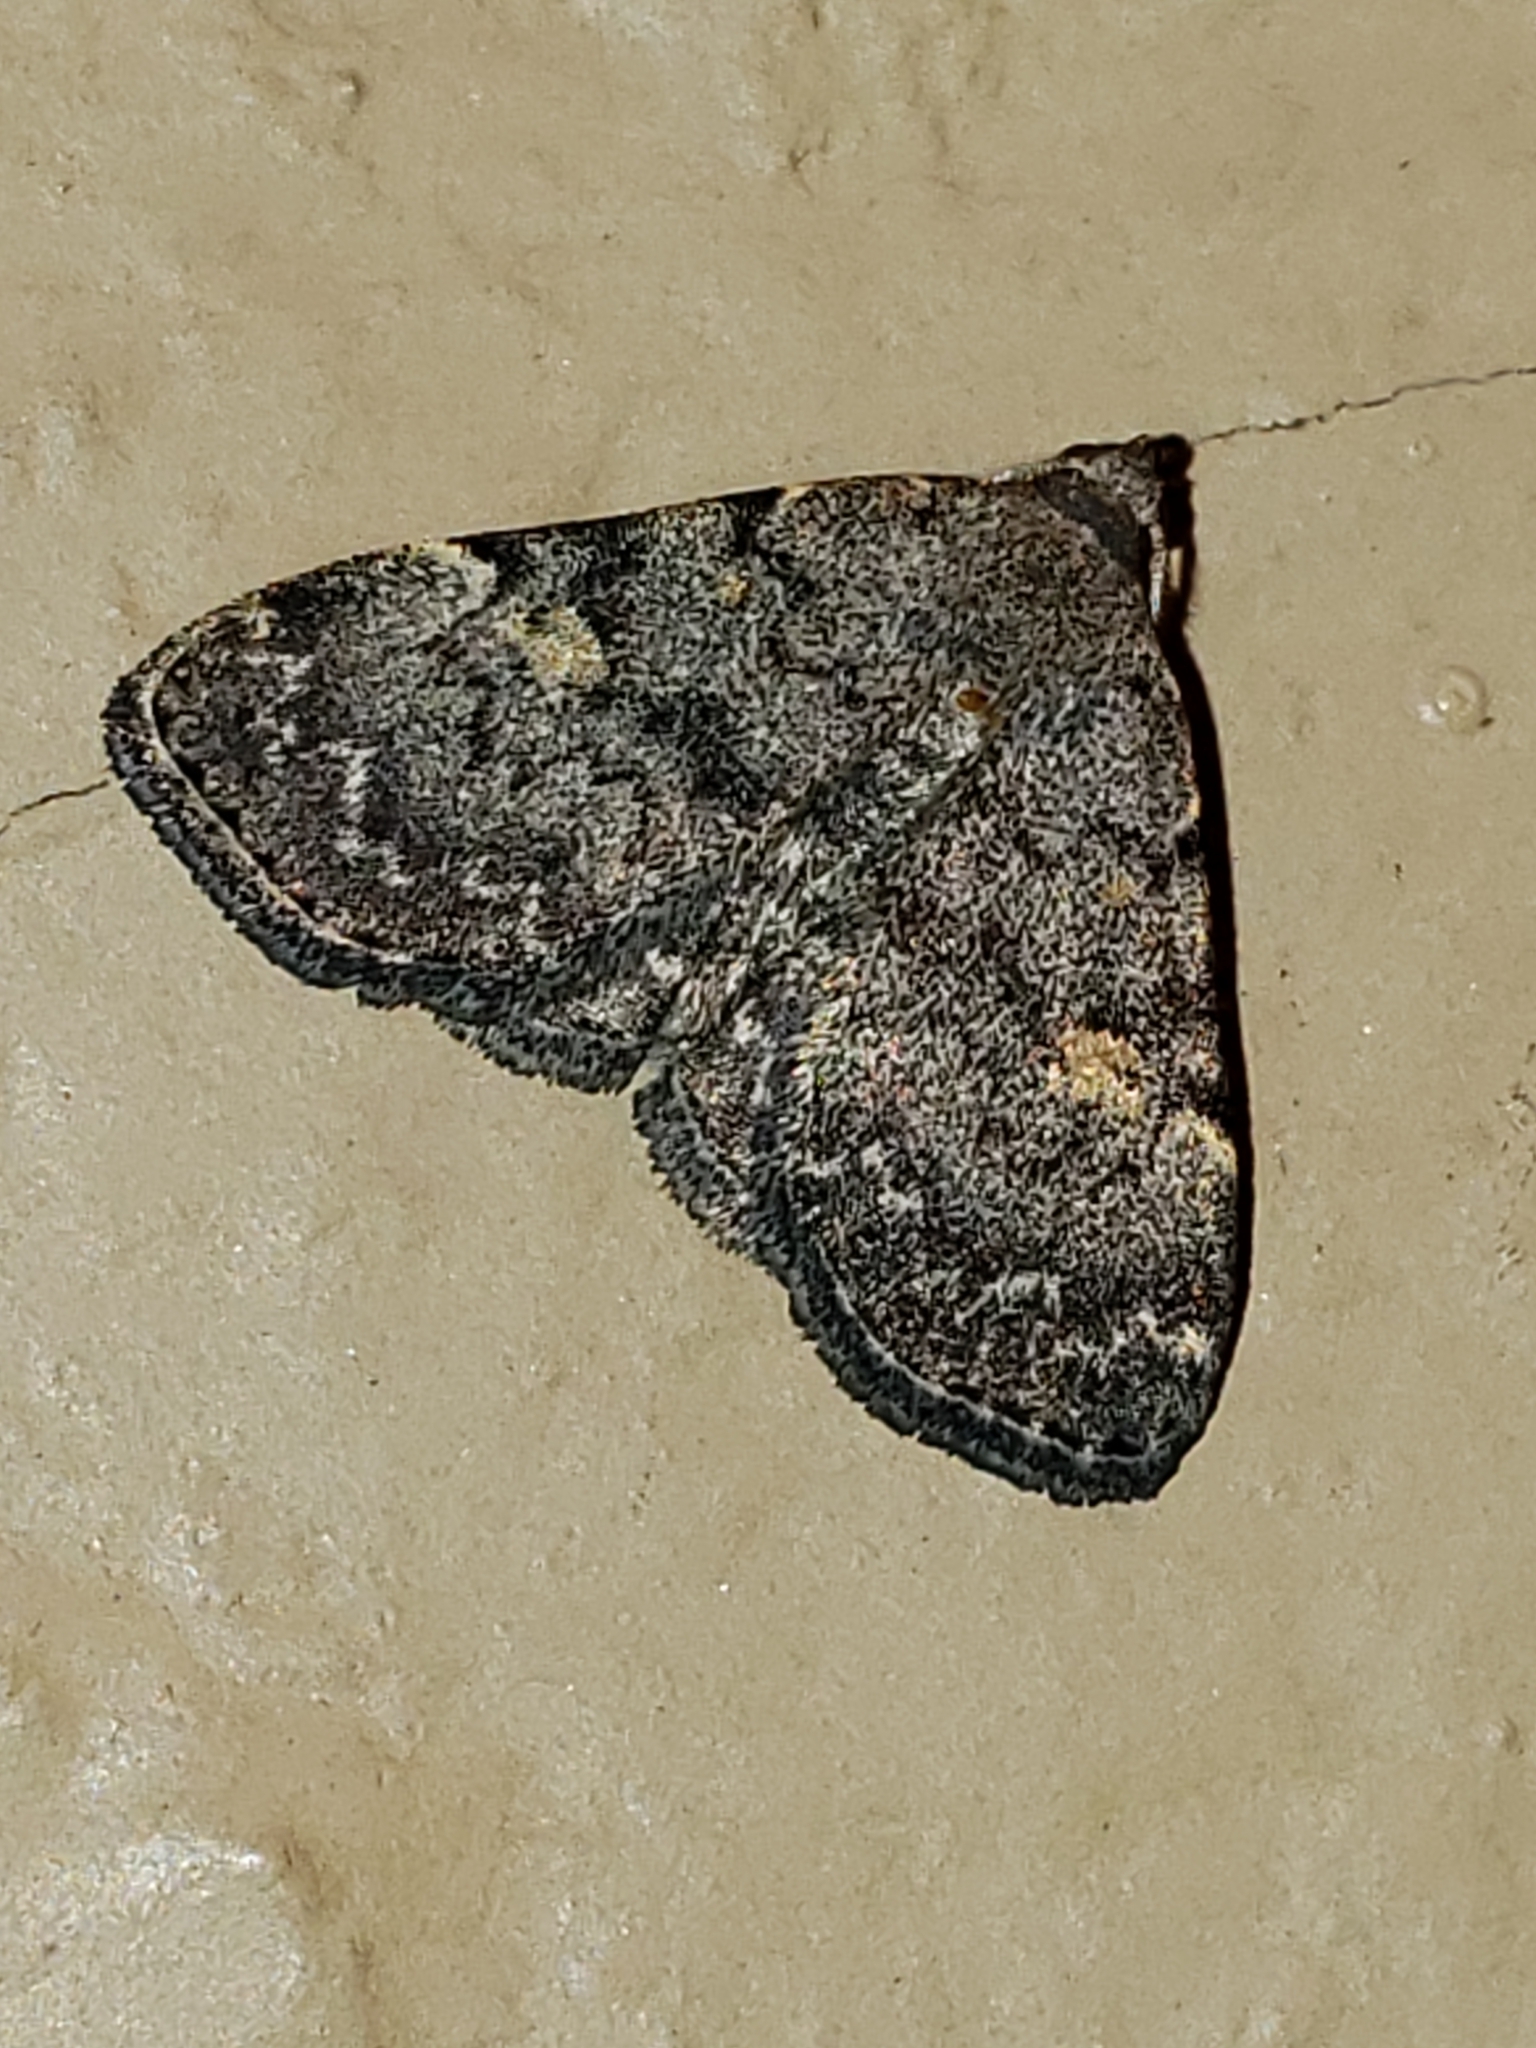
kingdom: Animalia
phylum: Arthropoda
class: Insecta
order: Lepidoptera
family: Erebidae
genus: Idia
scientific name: Idia aemula
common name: Common idia moth
